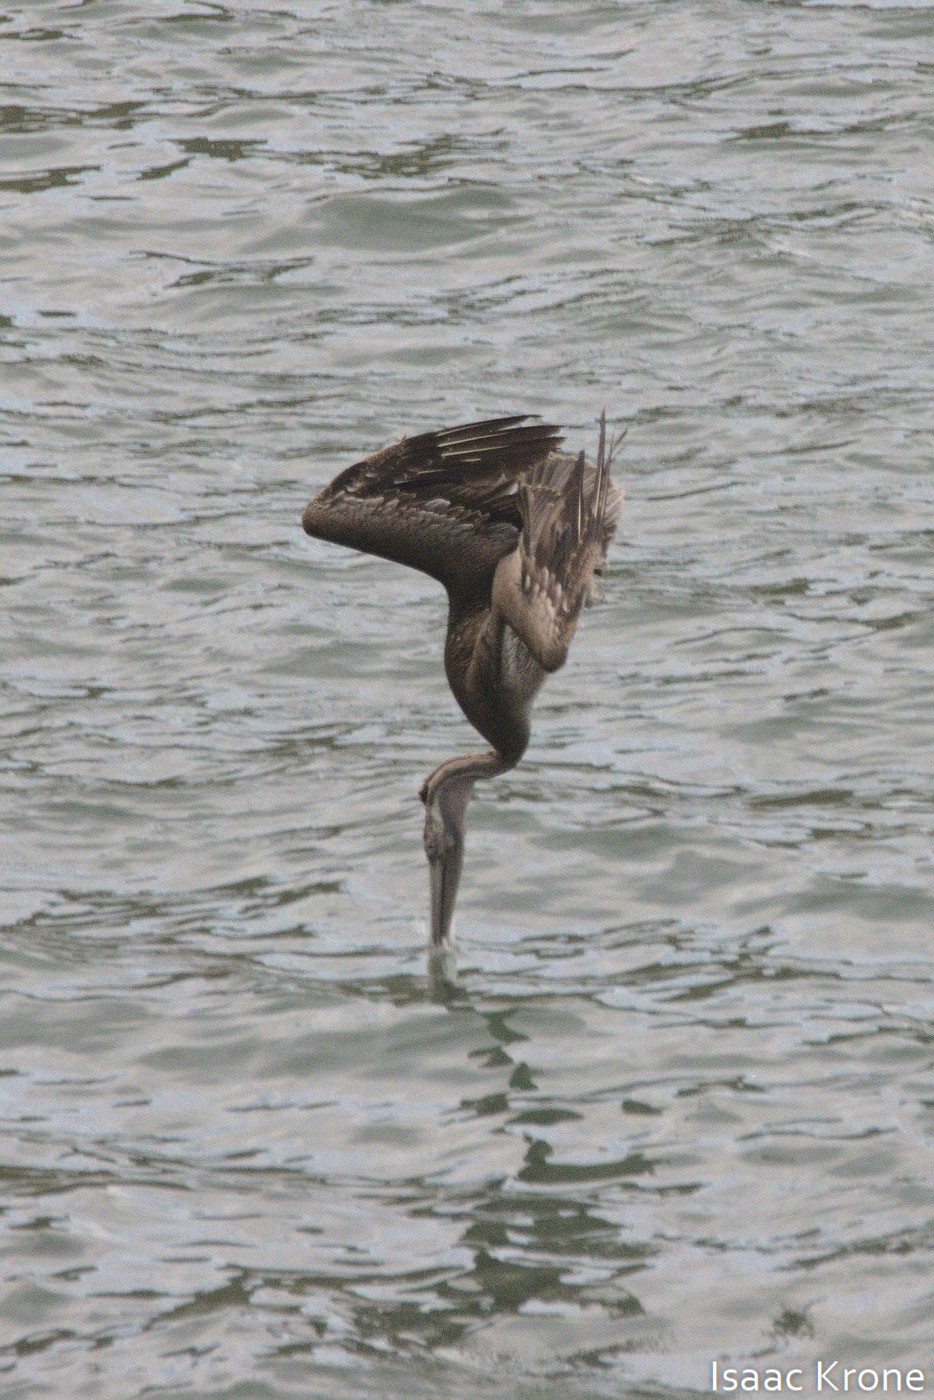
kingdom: Animalia
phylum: Chordata
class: Aves
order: Pelecaniformes
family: Pelecanidae
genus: Pelecanus
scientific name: Pelecanus occidentalis
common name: Brown pelican
